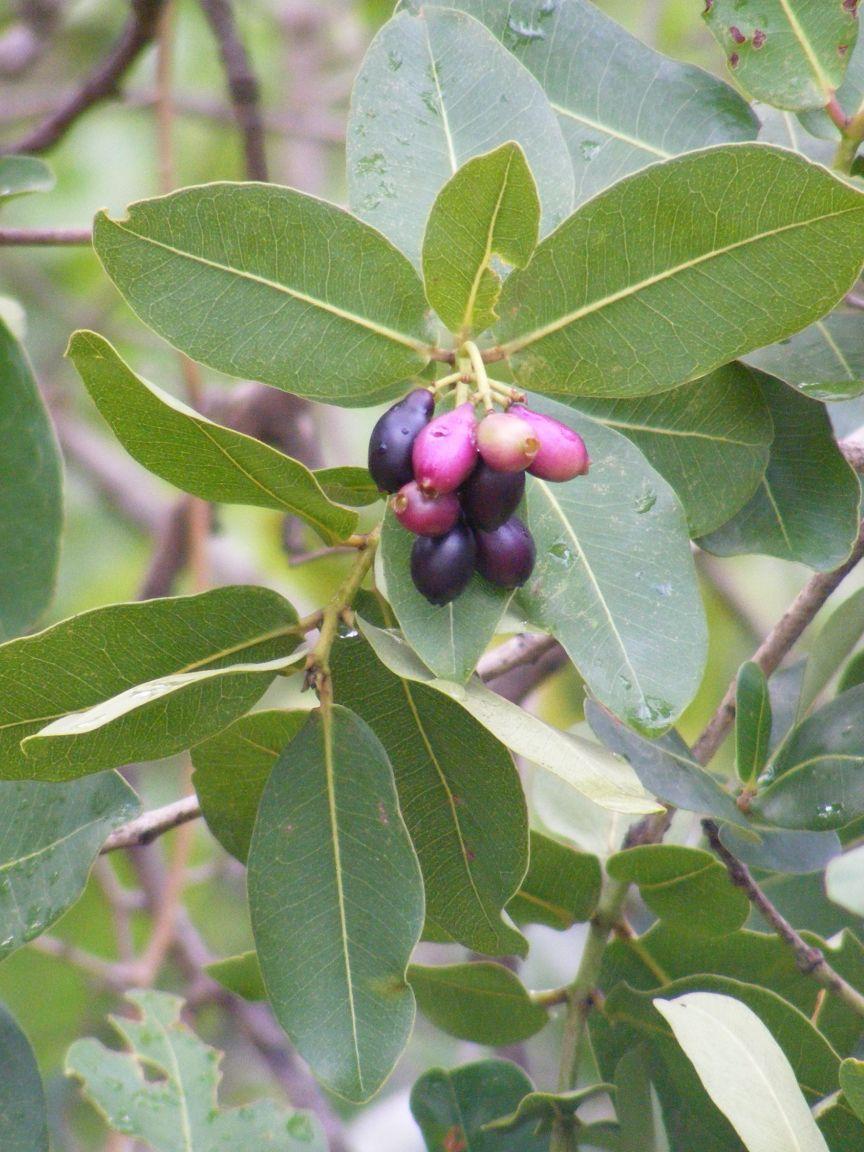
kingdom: Plantae
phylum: Tracheophyta
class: Magnoliopsida
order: Myrtales
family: Myrtaceae
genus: Syzygium
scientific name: Syzygium cordatum
